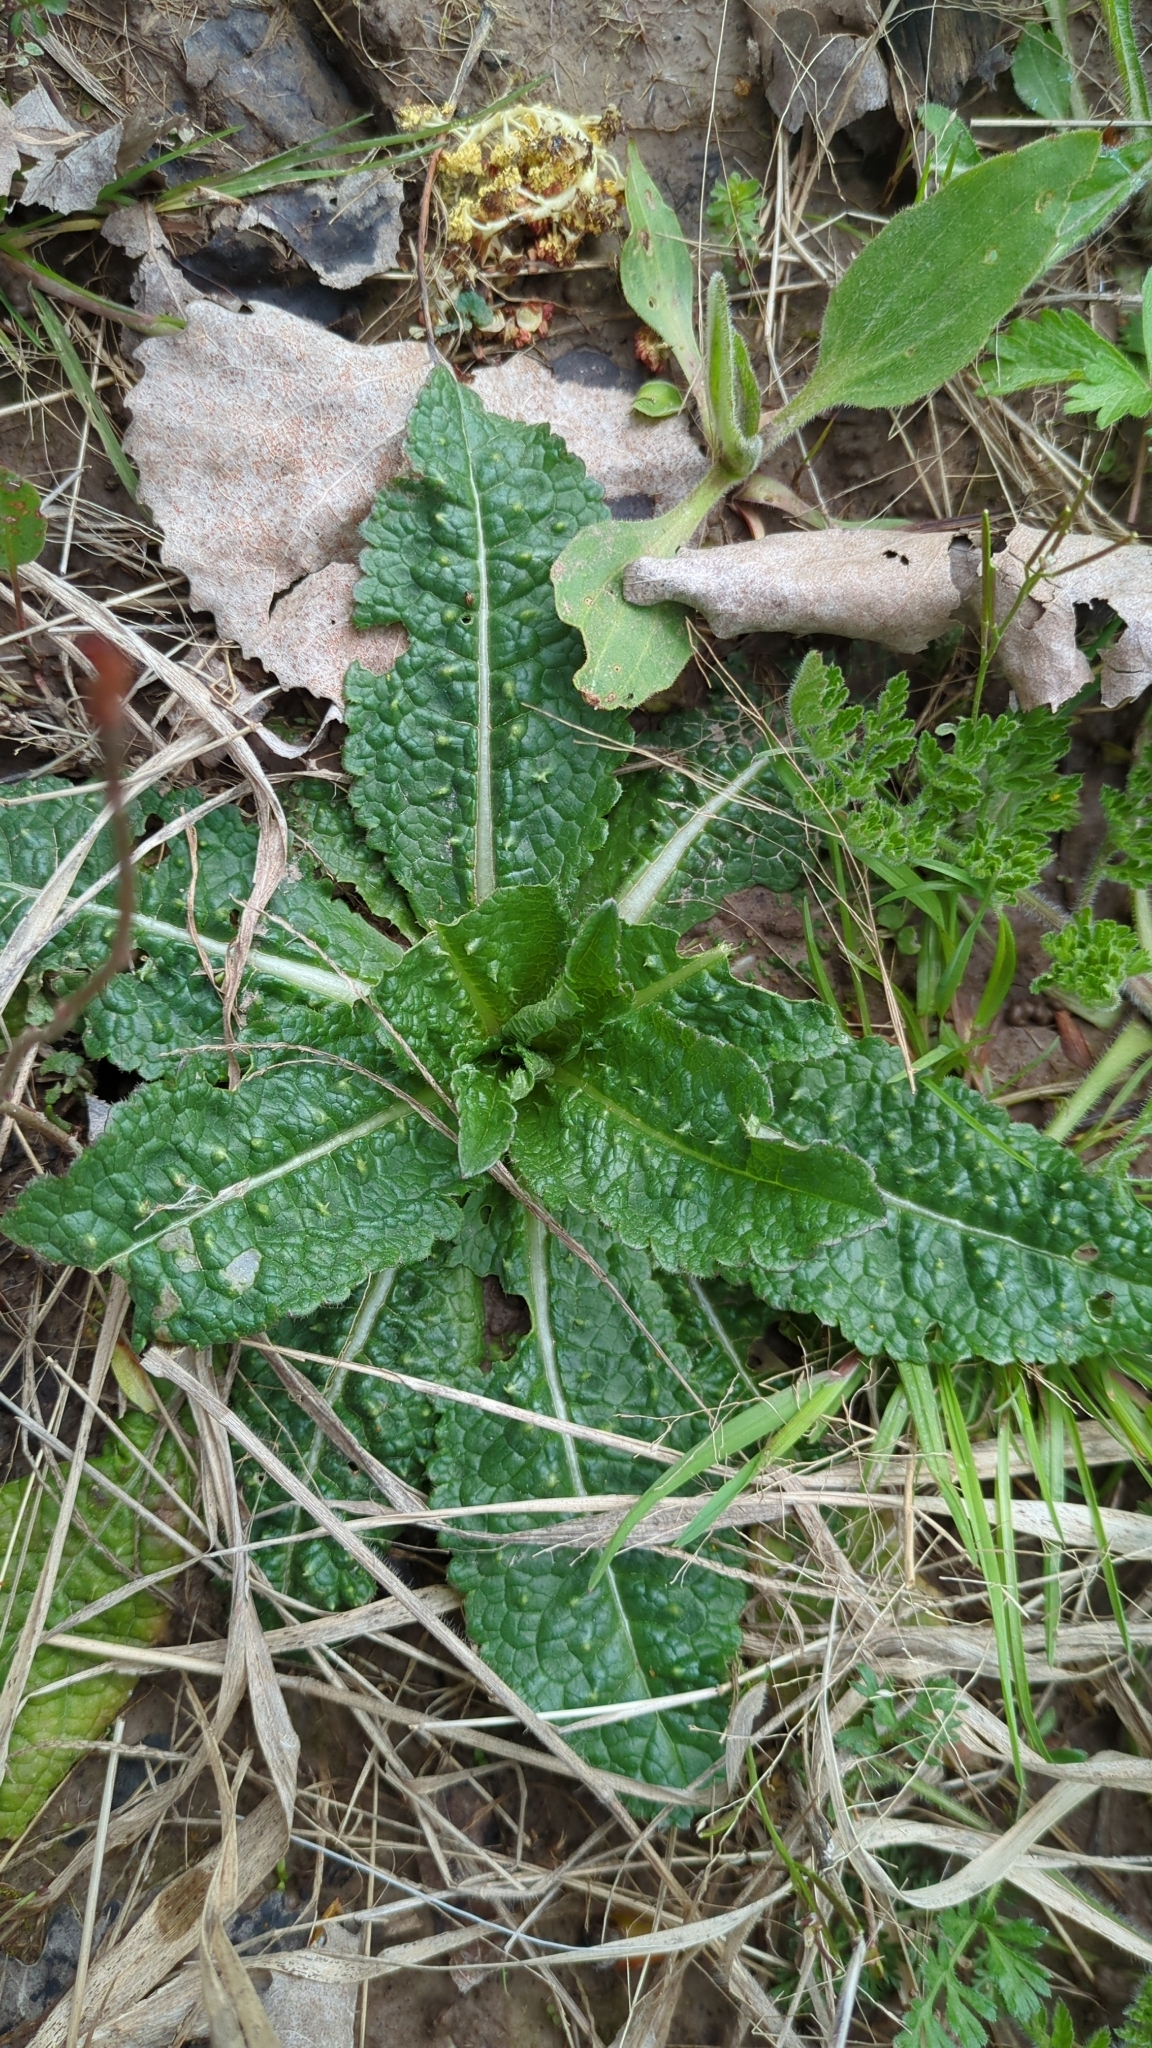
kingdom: Plantae
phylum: Tracheophyta
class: Magnoliopsida
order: Dipsacales
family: Caprifoliaceae
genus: Dipsacus
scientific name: Dipsacus fullonum
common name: Teasel
